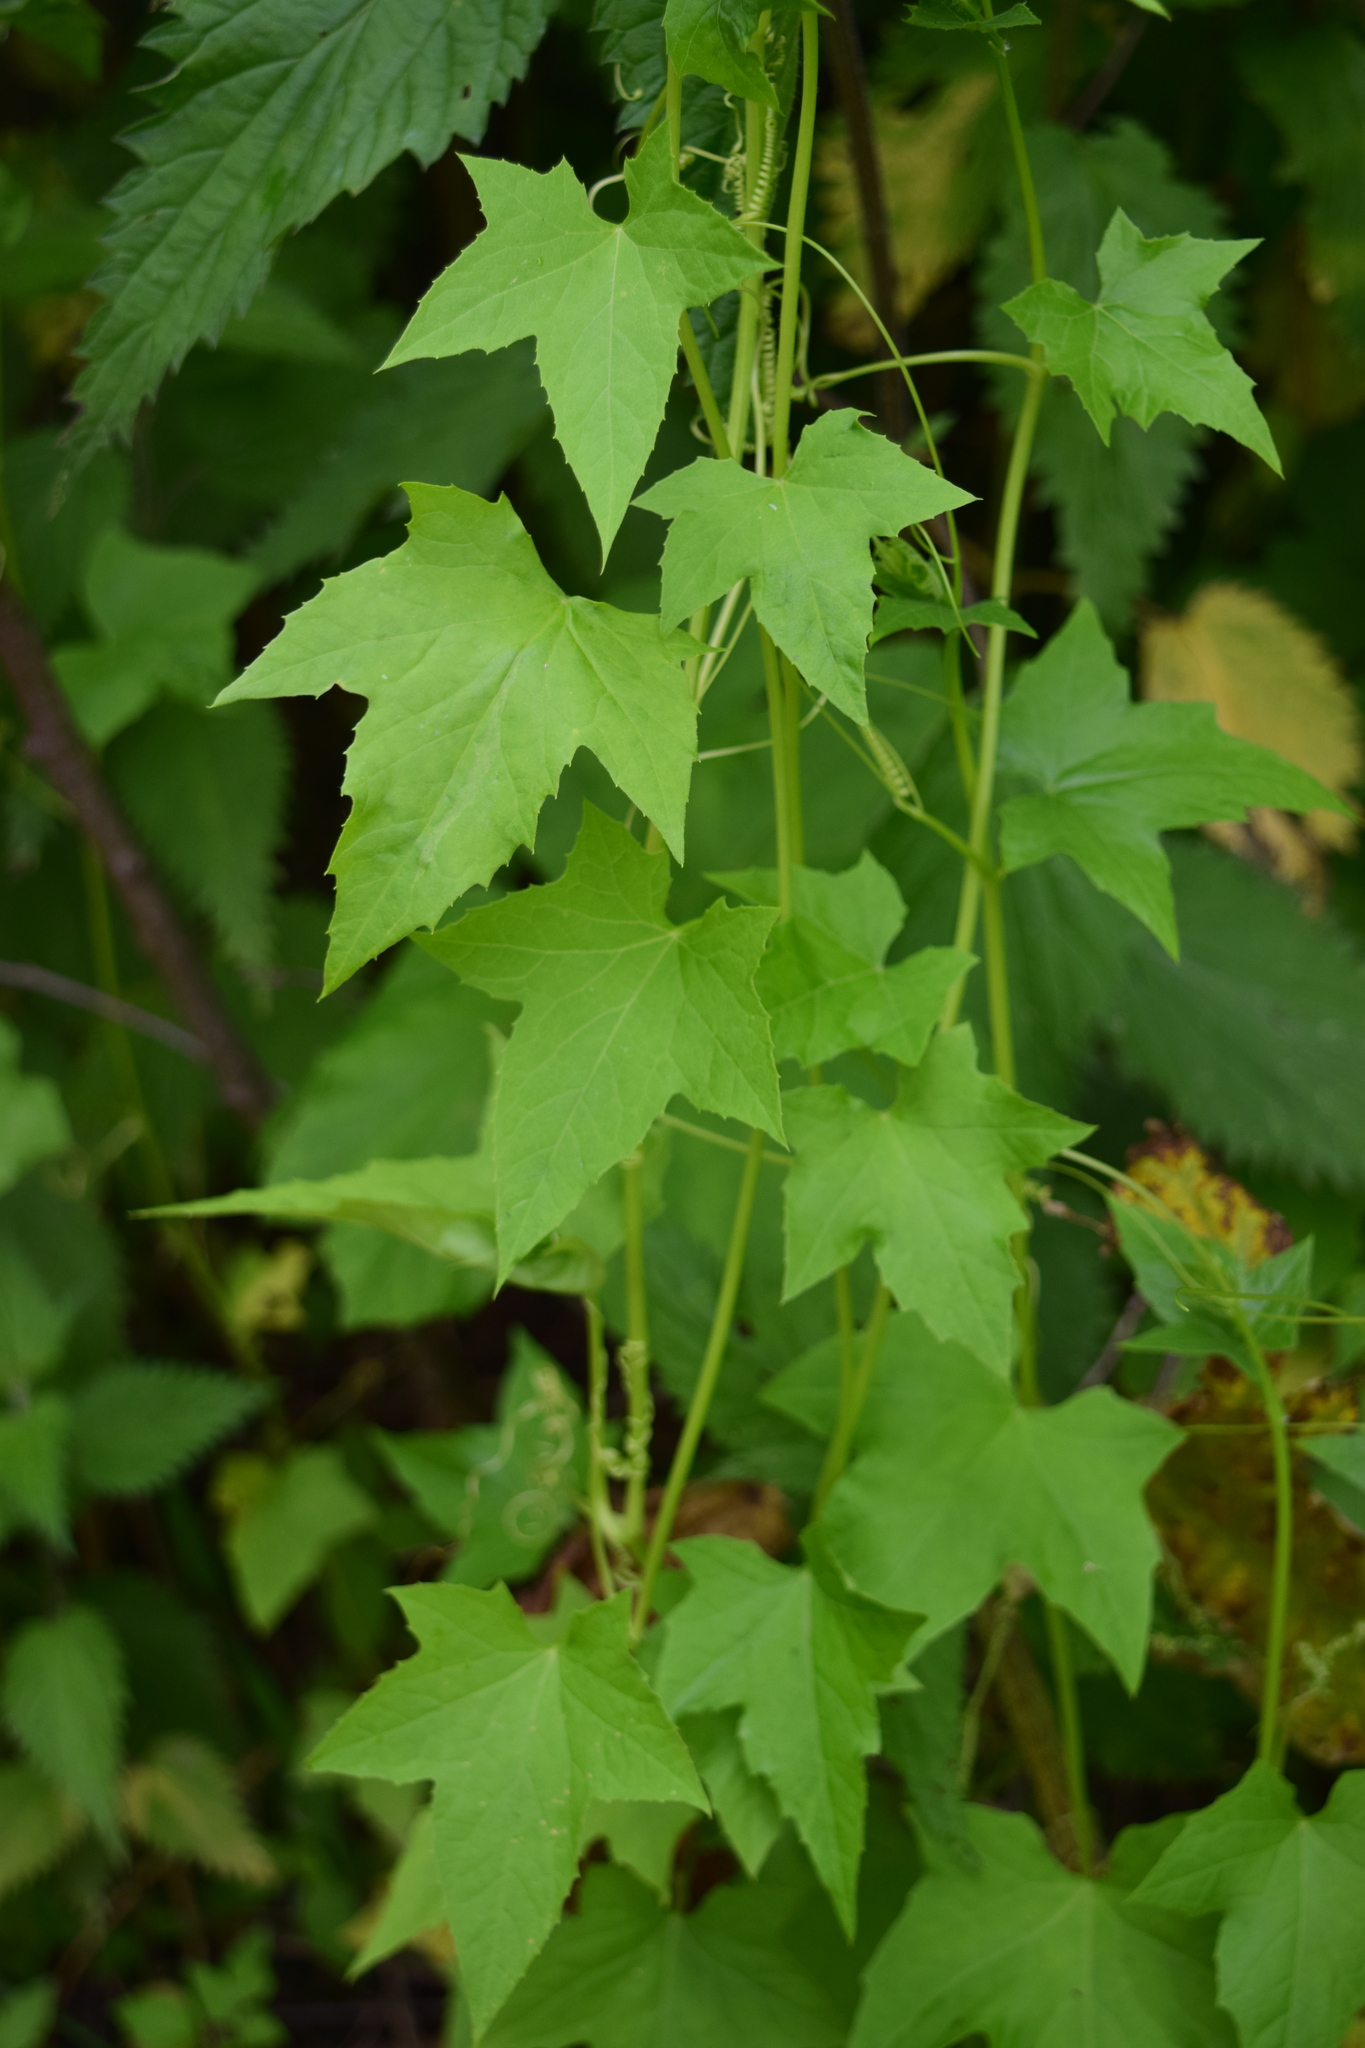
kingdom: Plantae
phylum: Tracheophyta
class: Magnoliopsida
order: Cucurbitales
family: Cucurbitaceae
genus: Echinocystis
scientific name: Echinocystis lobata
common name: Wild cucumber
